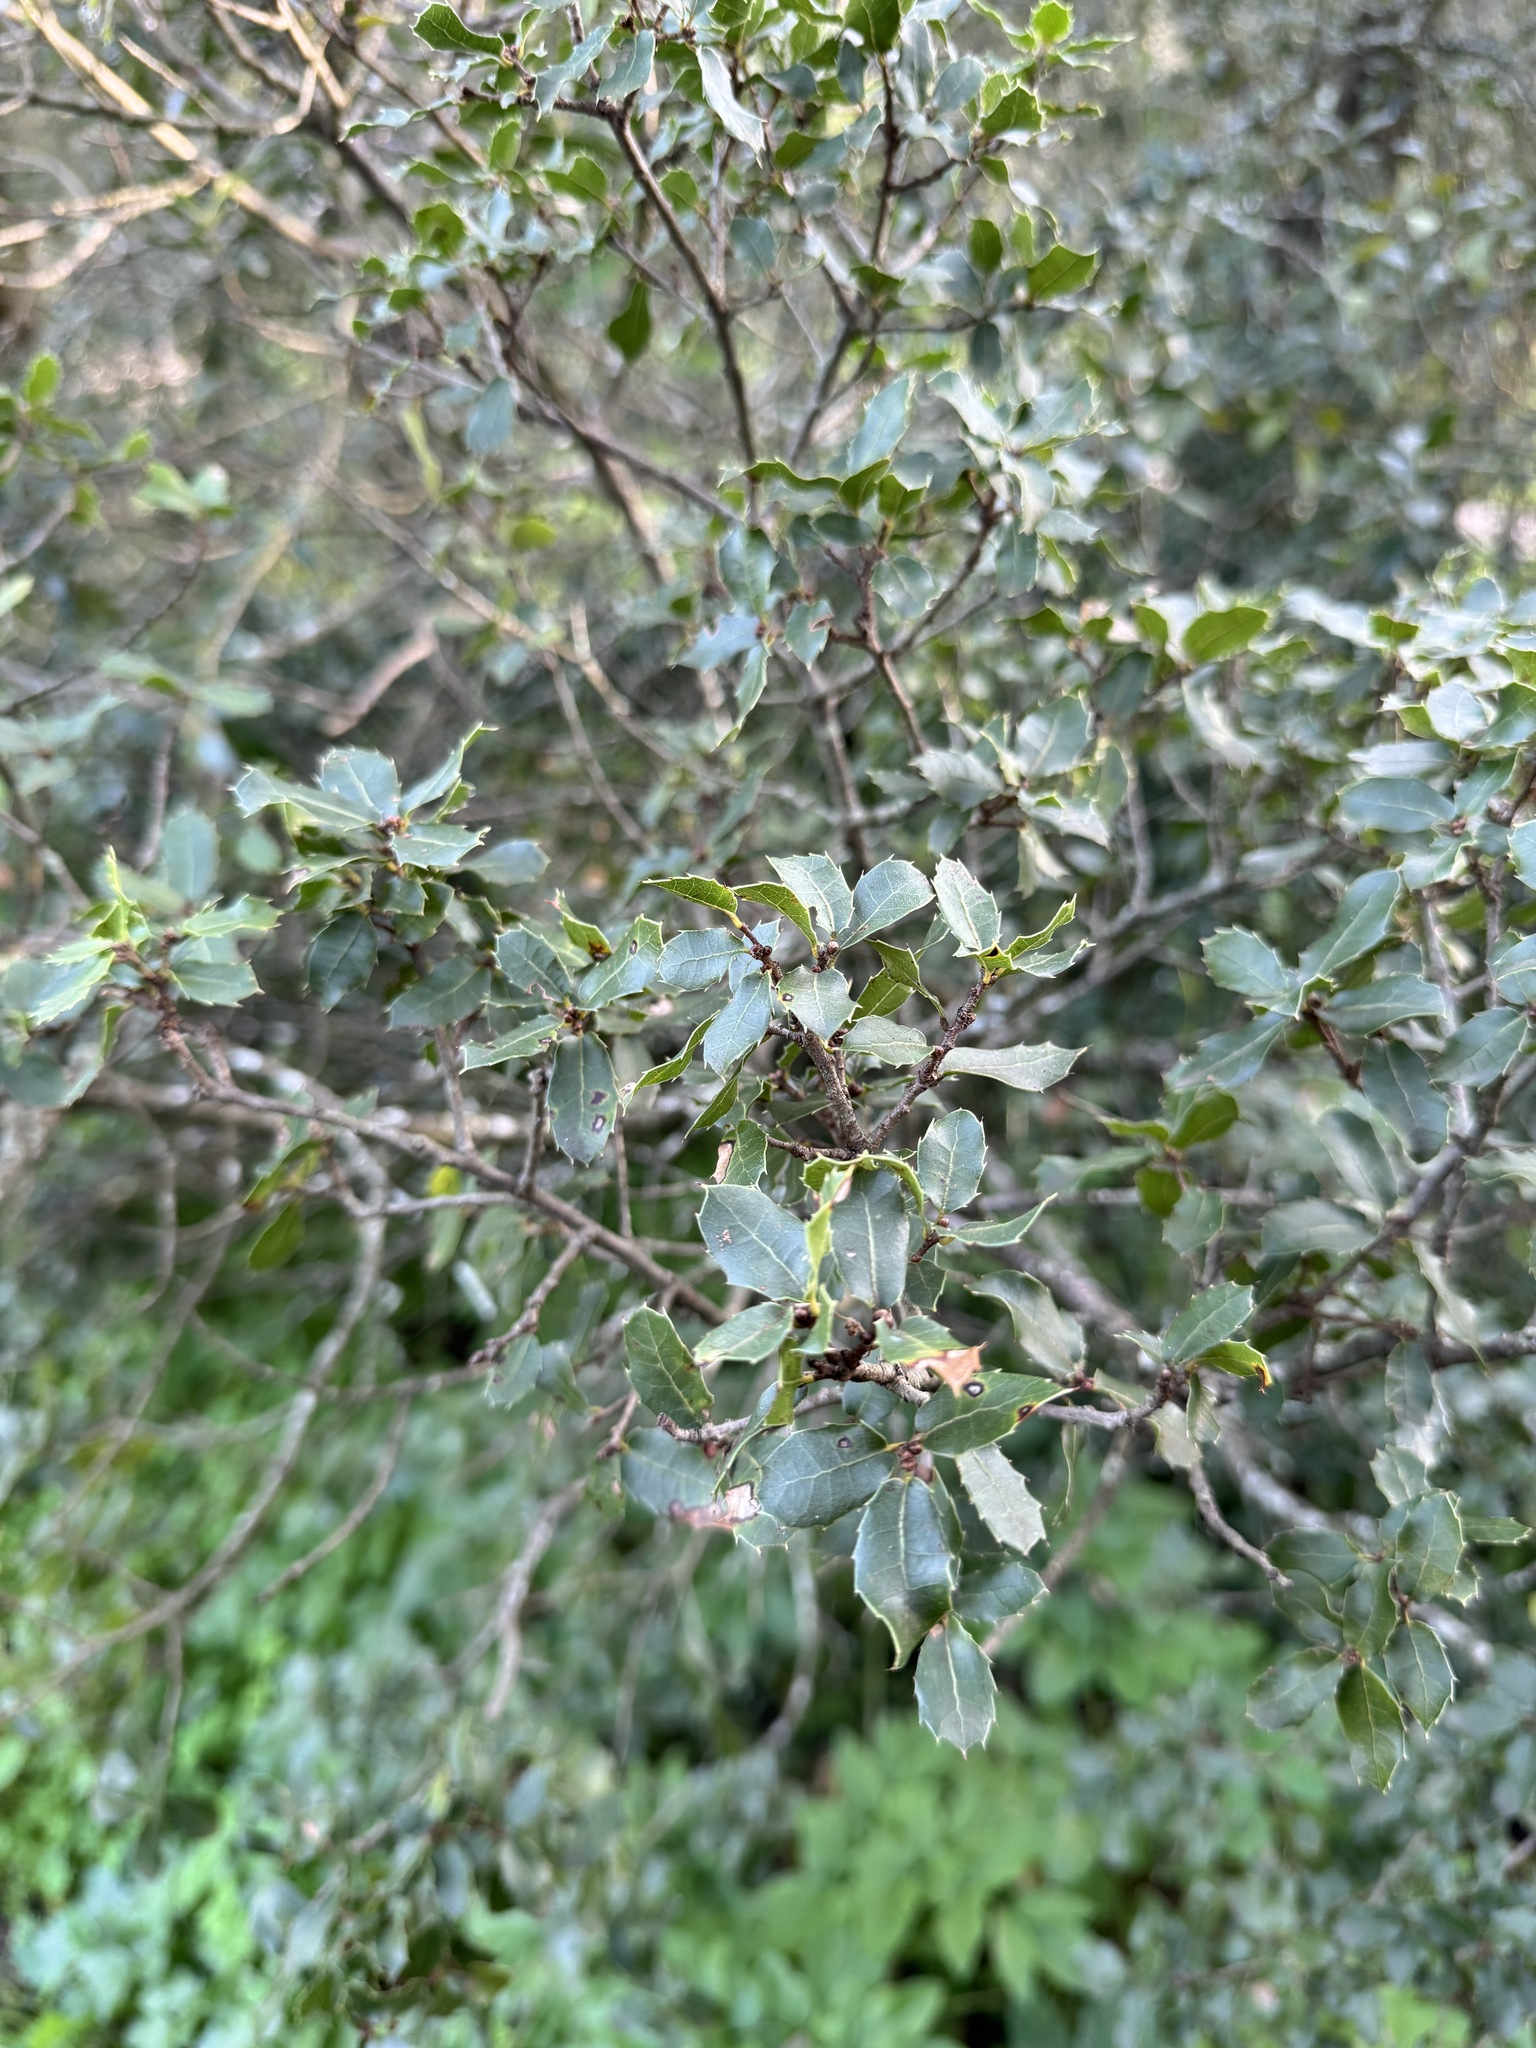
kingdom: Plantae
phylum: Tracheophyta
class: Magnoliopsida
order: Fagales
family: Fagaceae
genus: Quercus
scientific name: Quercus coccifera
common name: Kermes oak
